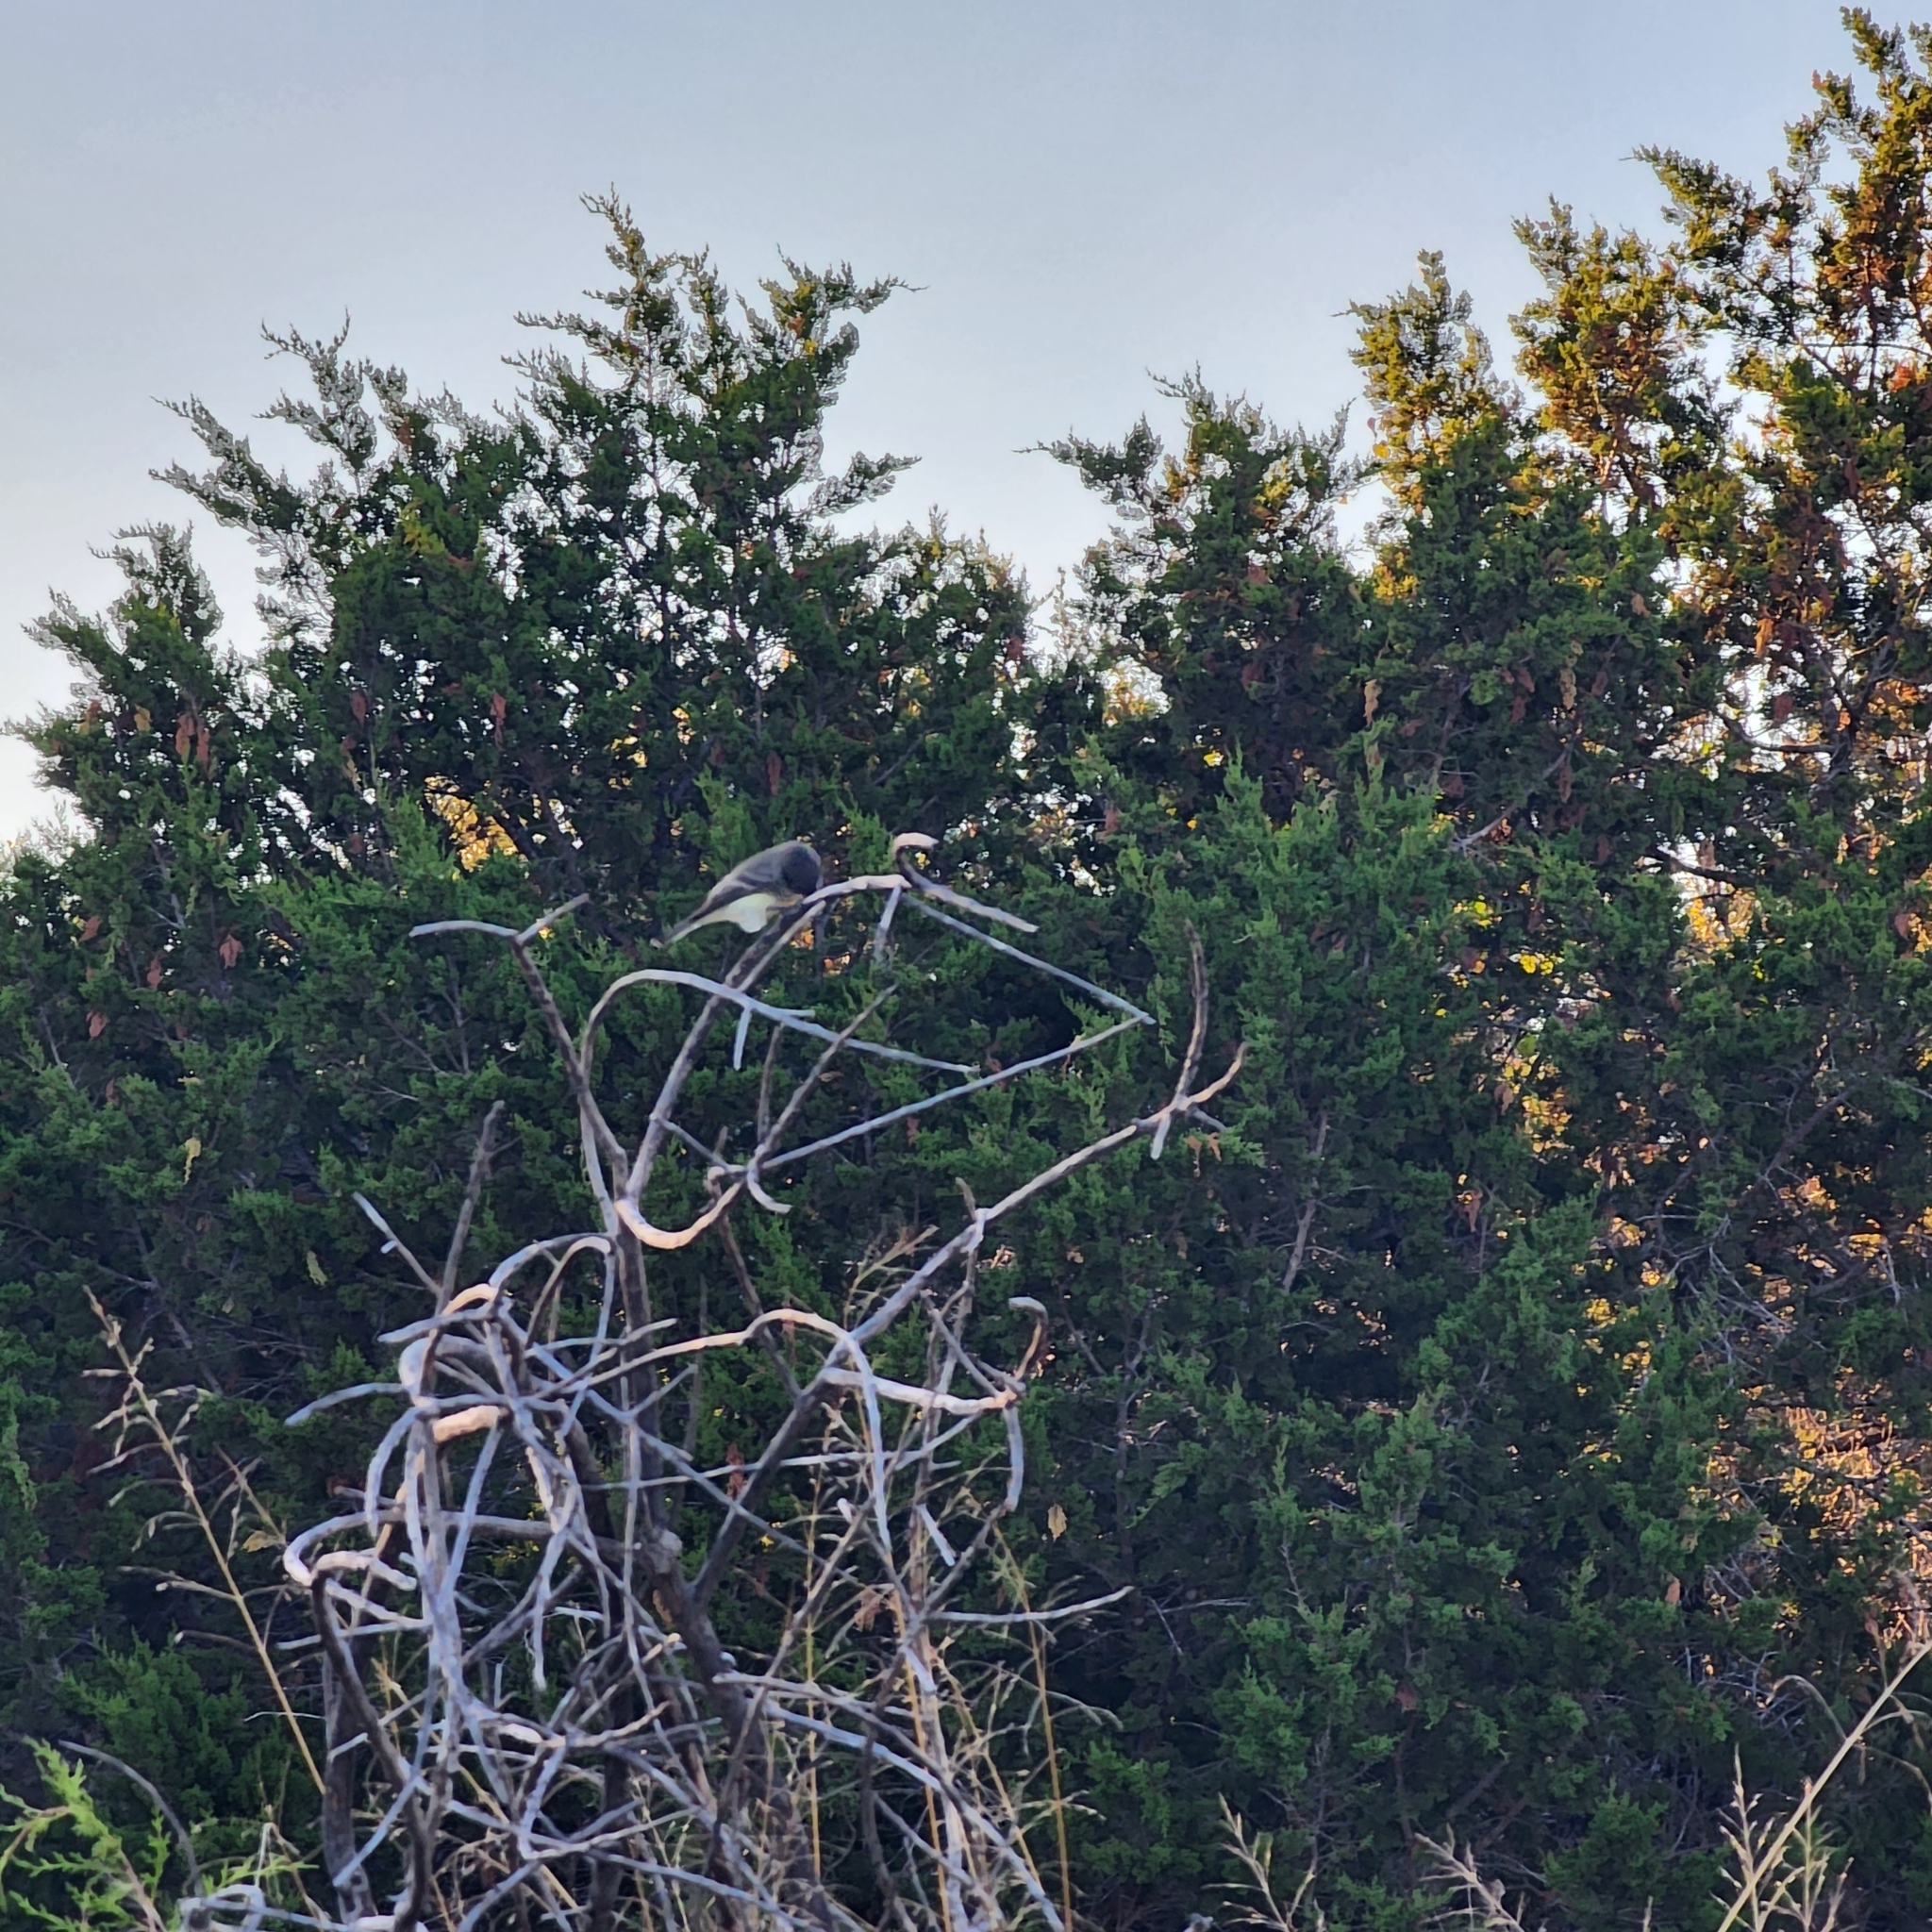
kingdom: Animalia
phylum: Chordata
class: Aves
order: Passeriformes
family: Tyrannidae
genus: Sayornis
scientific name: Sayornis phoebe
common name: Eastern phoebe
